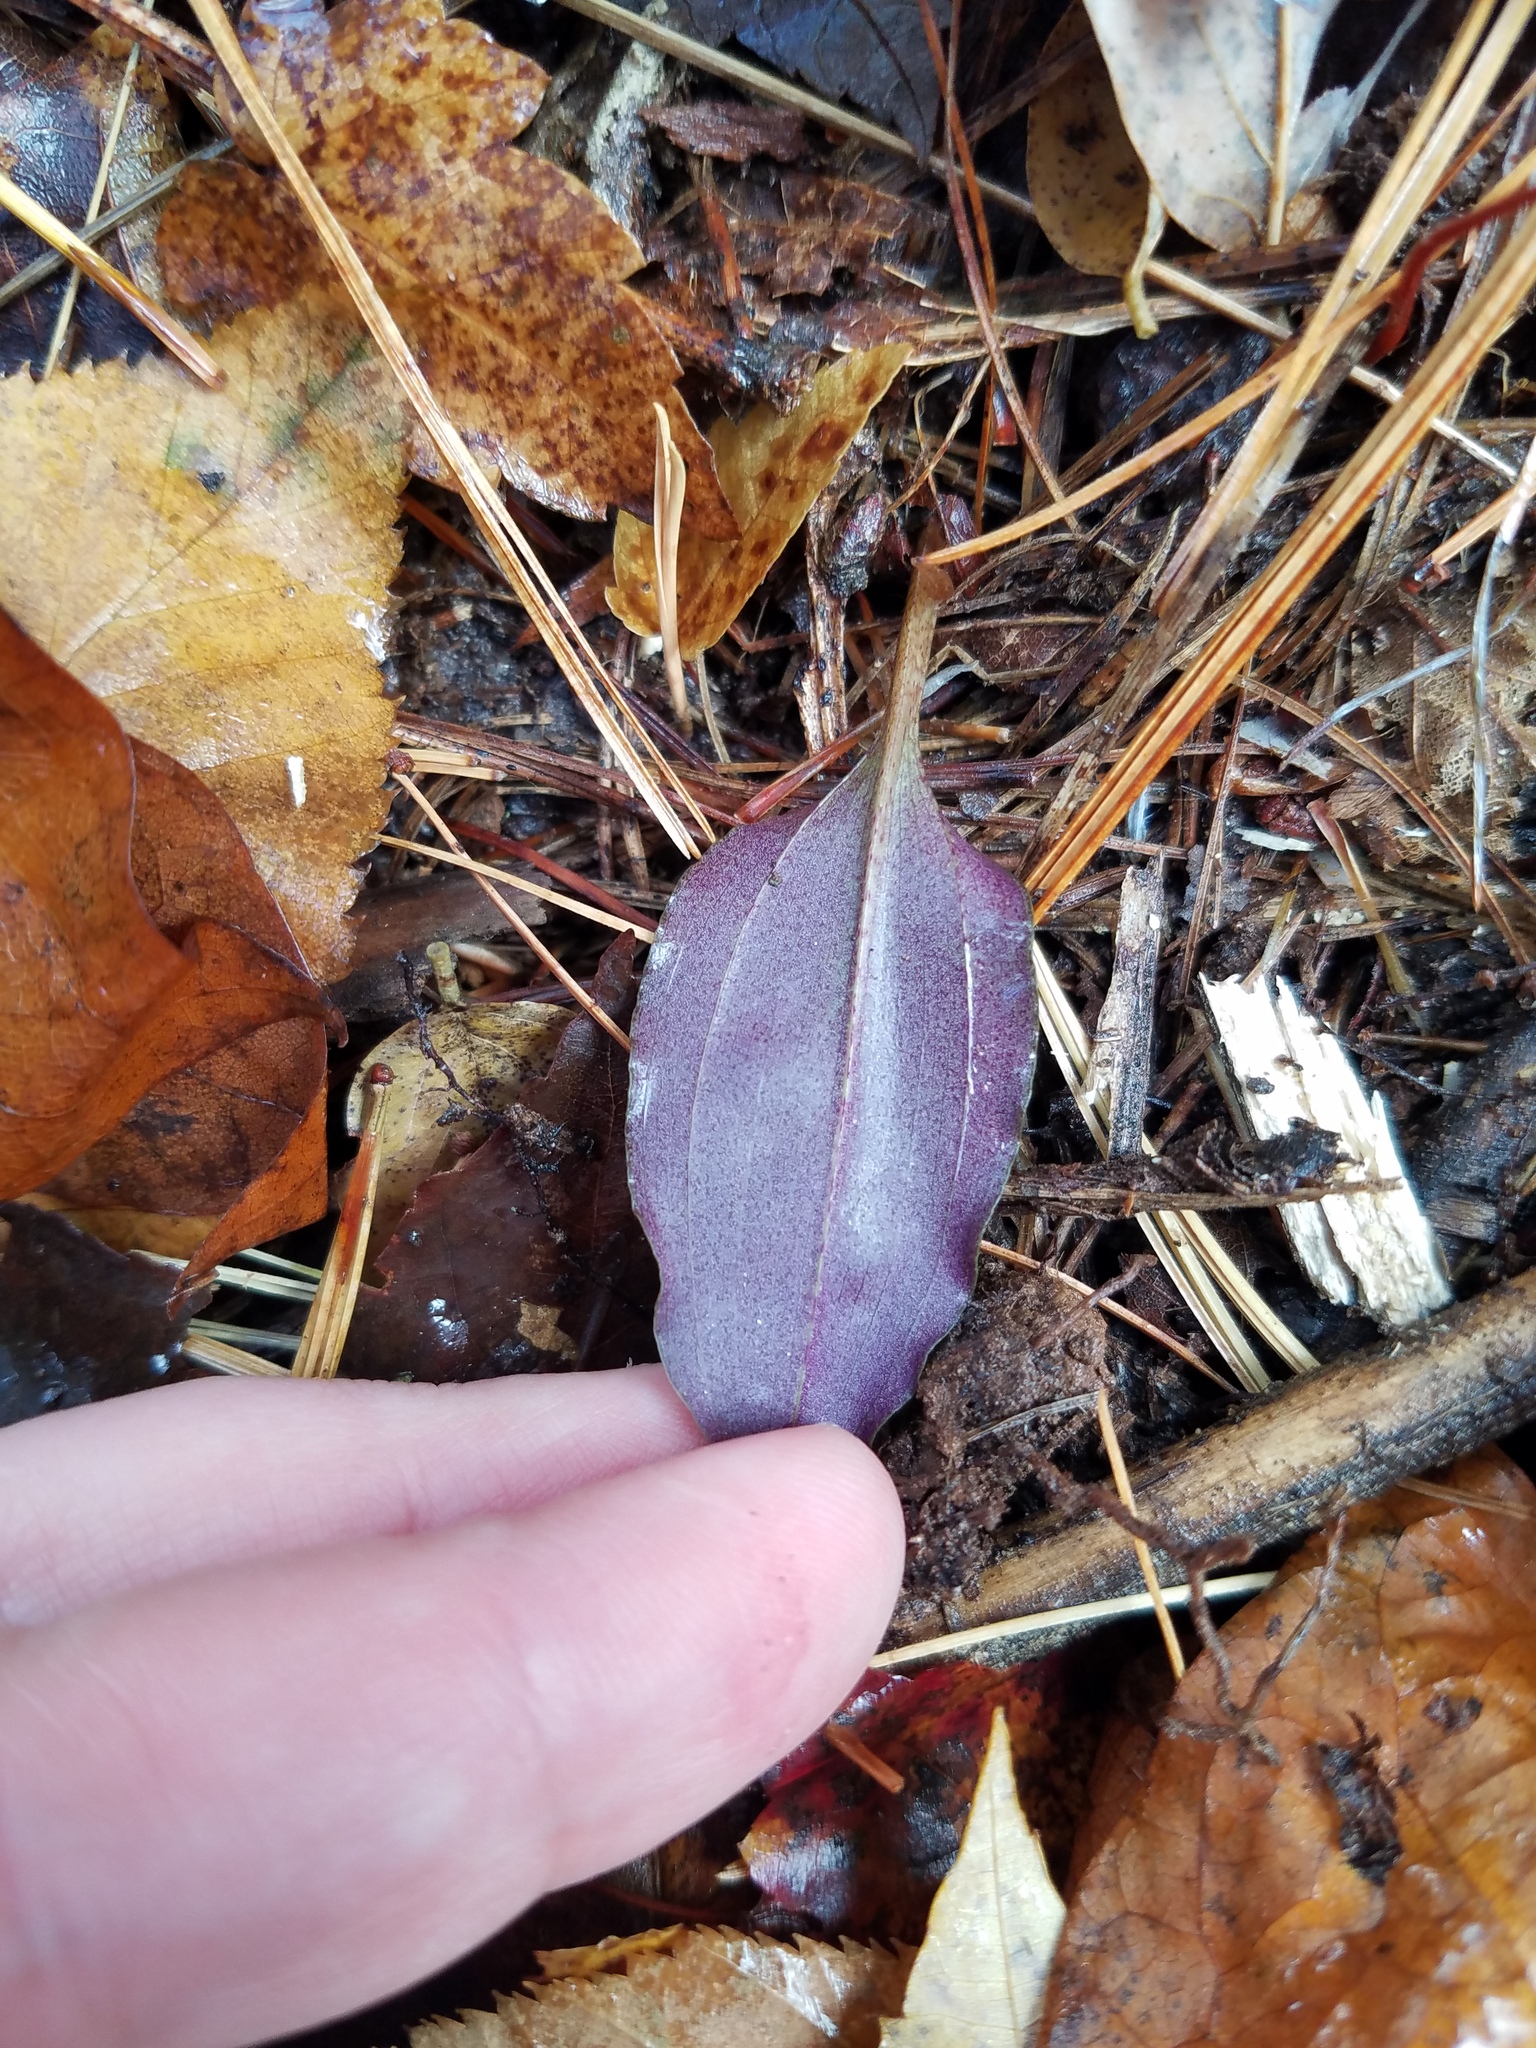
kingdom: Plantae
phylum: Tracheophyta
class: Liliopsida
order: Asparagales
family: Orchidaceae
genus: Tipularia
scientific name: Tipularia discolor
